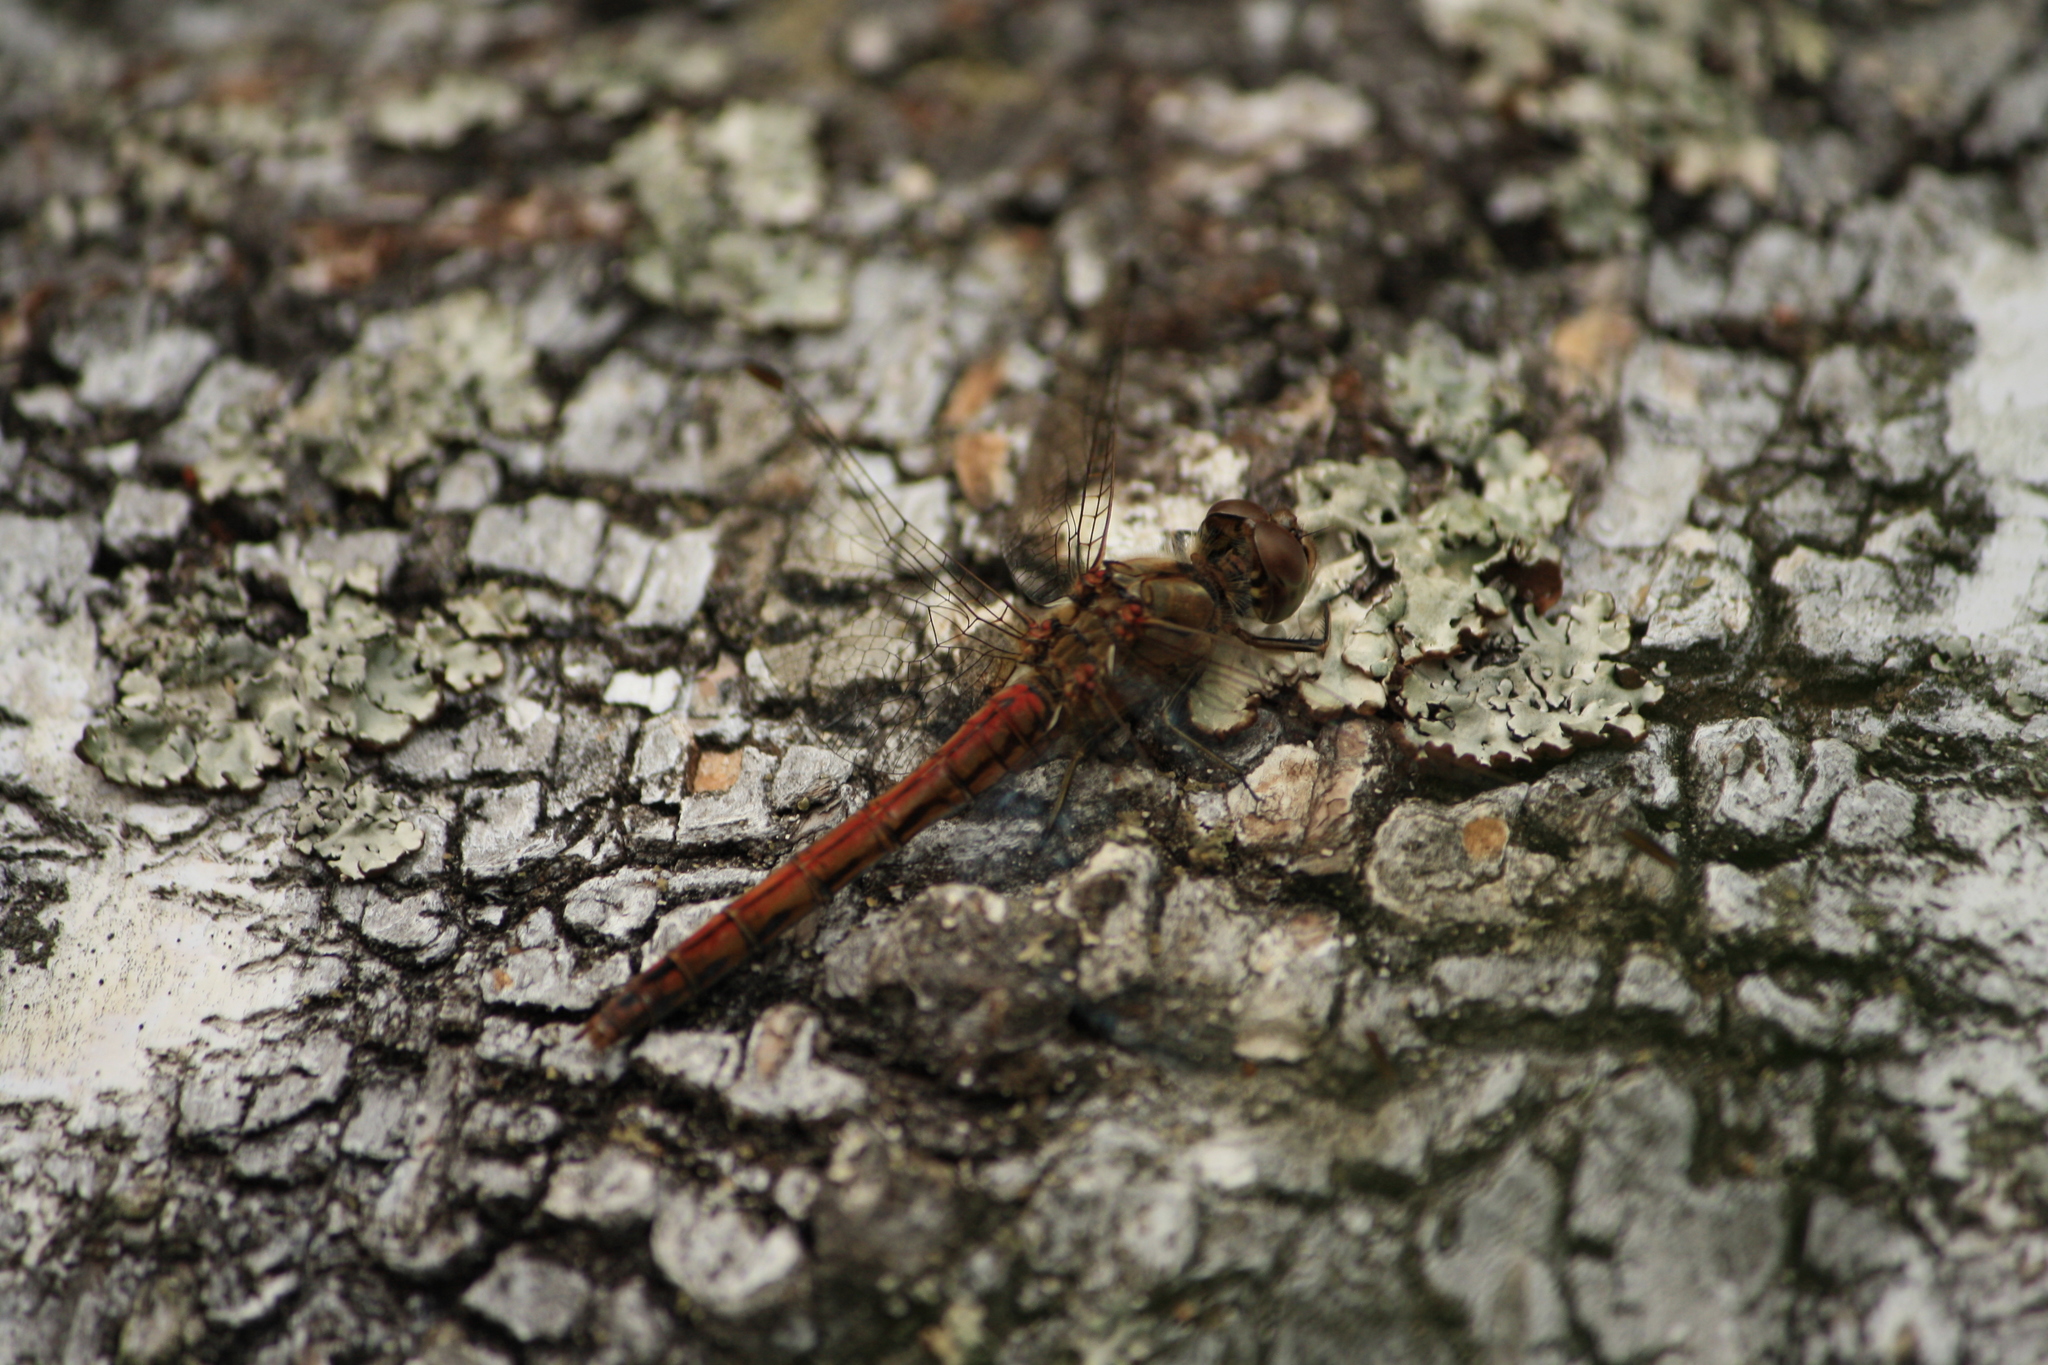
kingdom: Animalia
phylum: Arthropoda
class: Insecta
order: Odonata
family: Libellulidae
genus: Sympetrum
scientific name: Sympetrum vulgatum
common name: Vagrant darter
